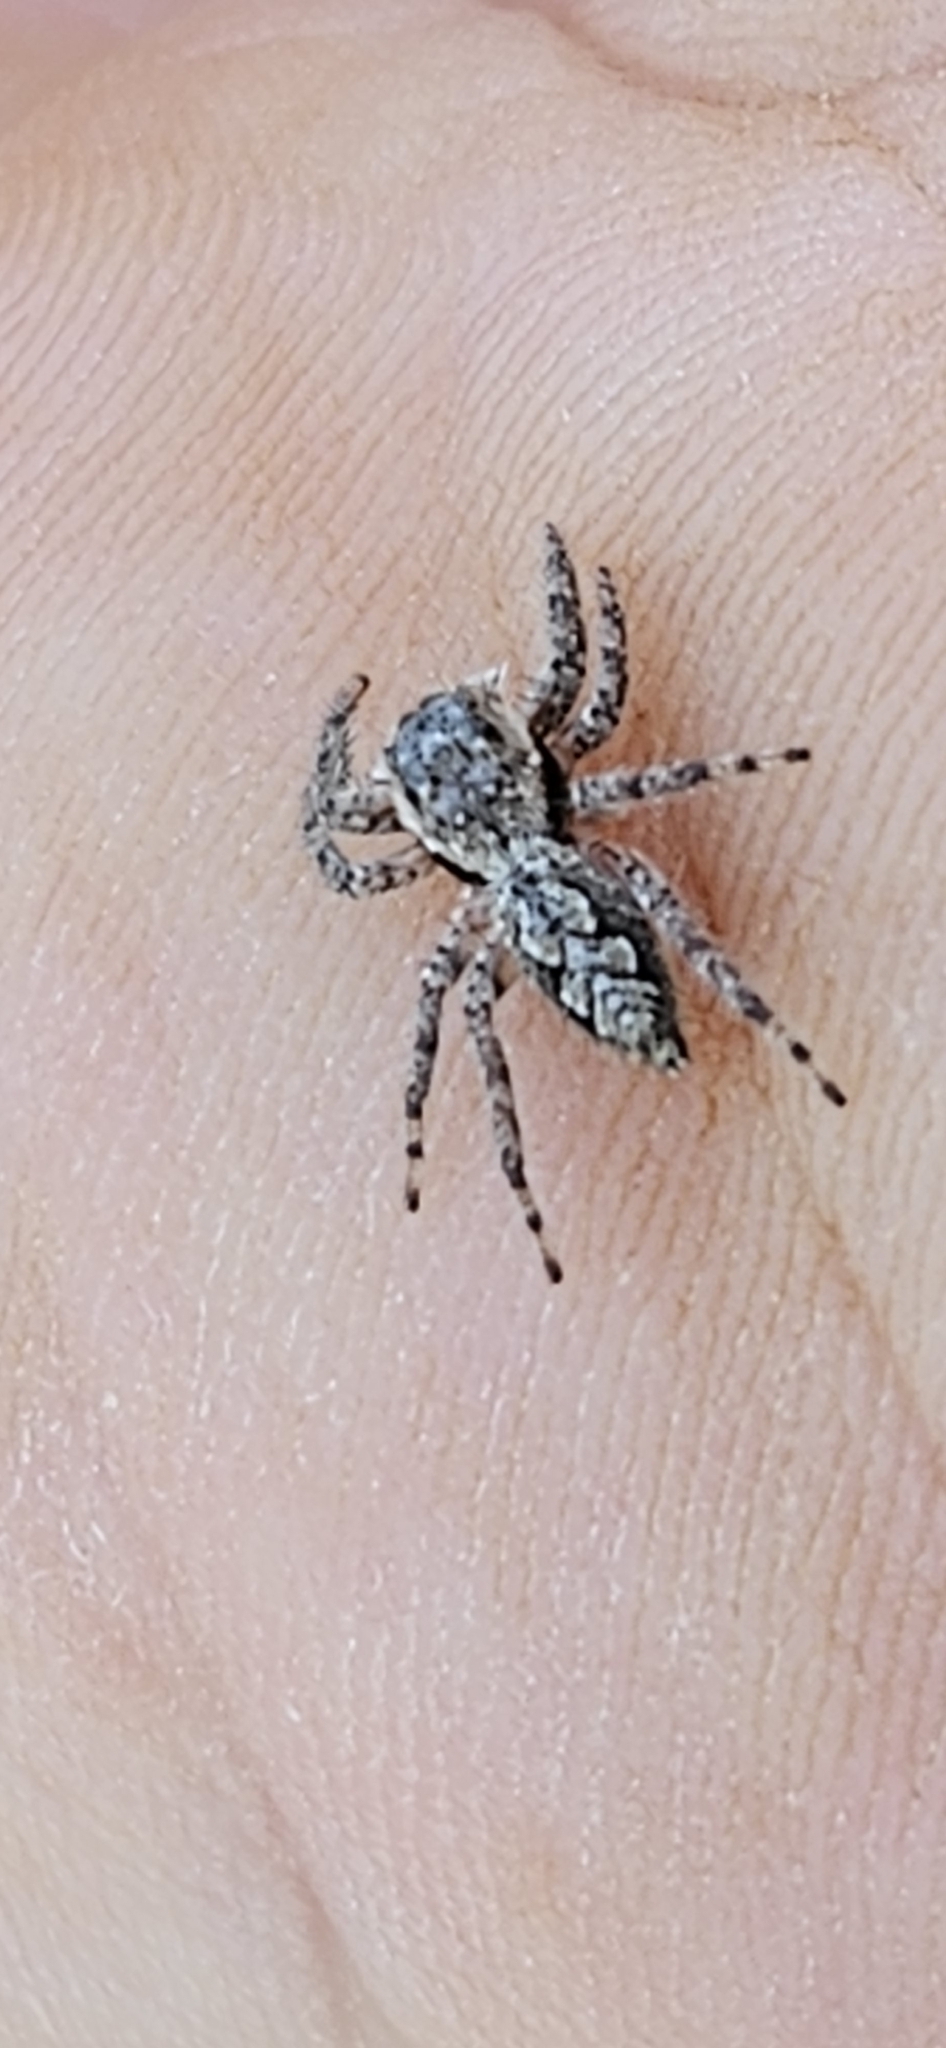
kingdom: Animalia
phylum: Arthropoda
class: Arachnida
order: Araneae
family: Salticidae
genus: Platycryptus
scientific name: Platycryptus undatus
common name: Tan jumping spider
